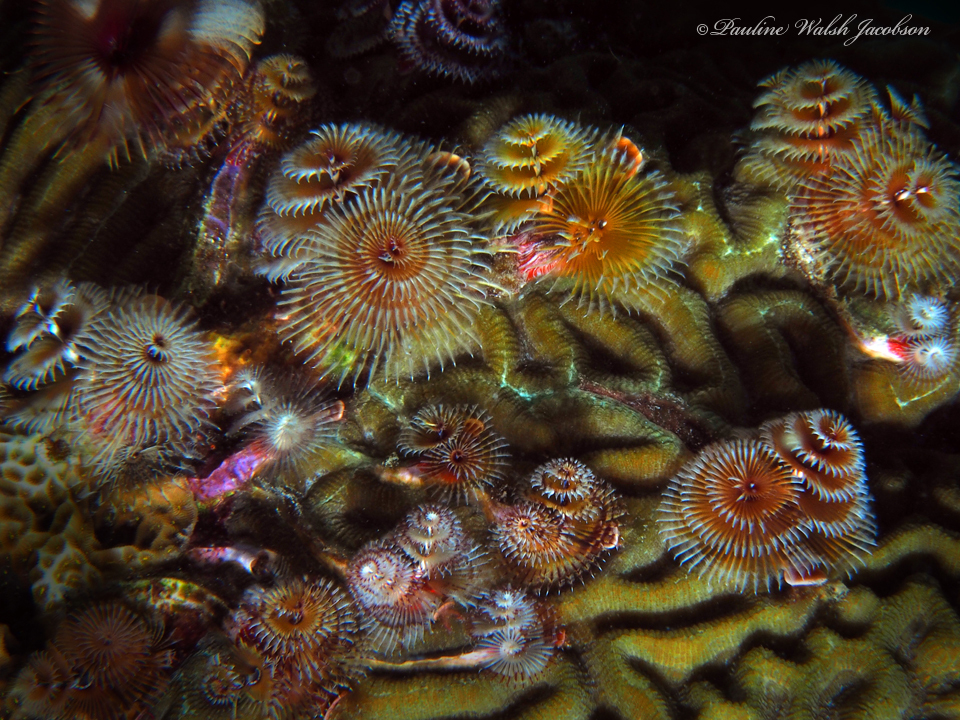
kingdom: Animalia
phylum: Annelida
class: Polychaeta
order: Sabellida
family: Serpulidae
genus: Spirobranchus
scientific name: Spirobranchus giganteus
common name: Christmas tree worm
